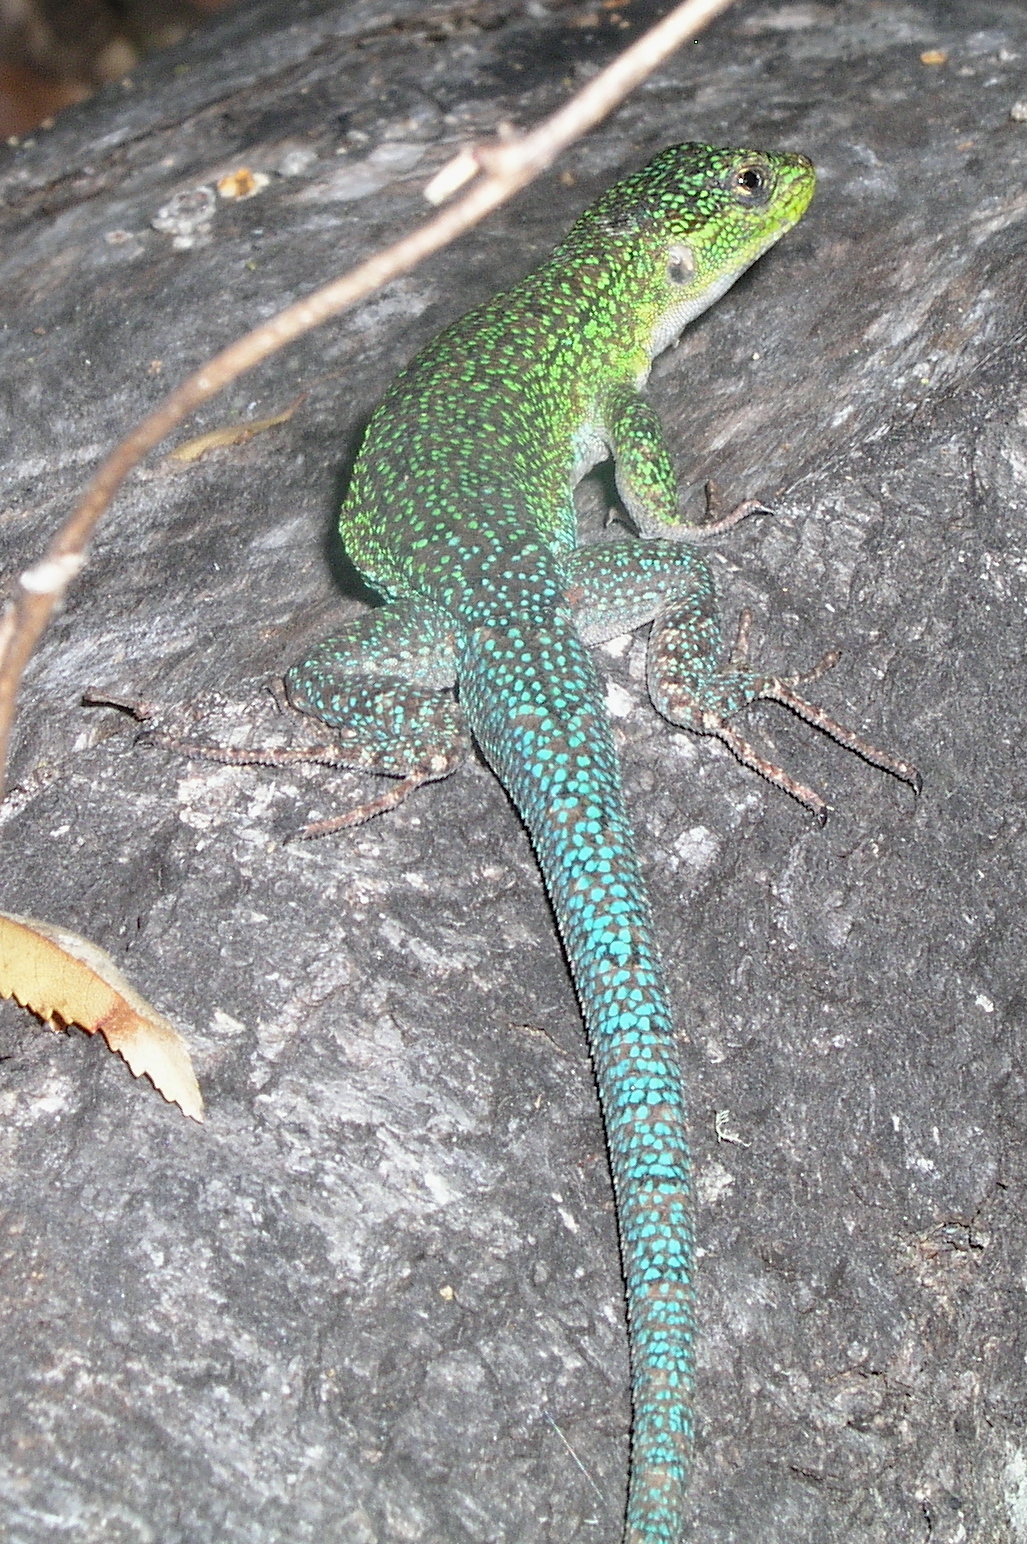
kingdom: Animalia
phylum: Chordata
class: Squamata
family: Liolaemidae
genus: Liolaemus
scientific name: Liolaemus tenuis
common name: Thin tree iguana
